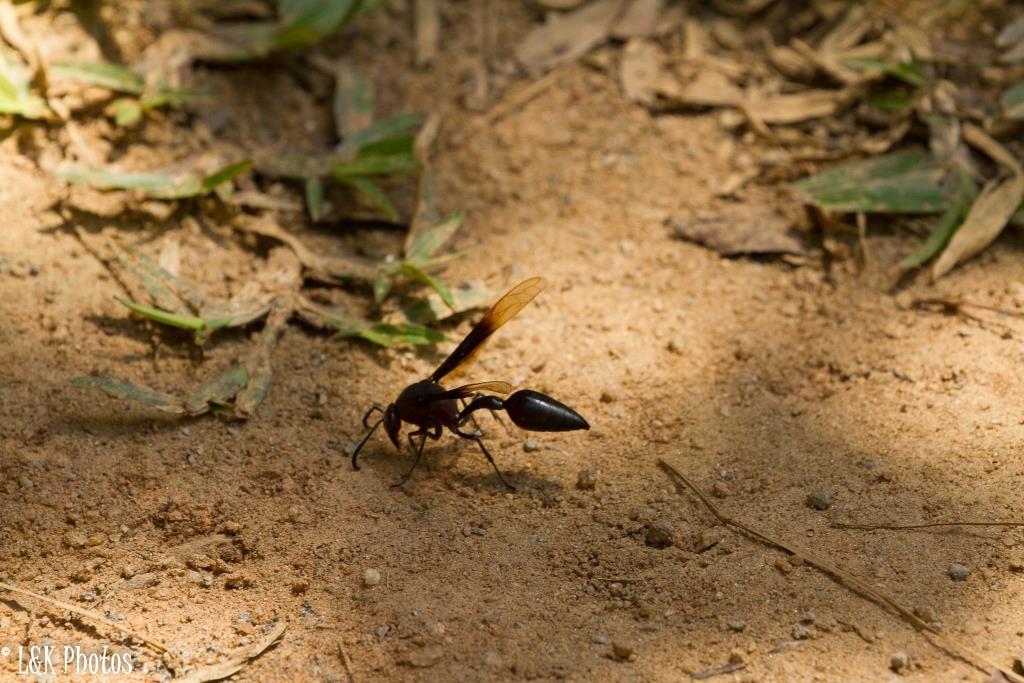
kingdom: Animalia
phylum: Arthropoda
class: Insecta
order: Hymenoptera
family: Eumenidae
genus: Delta
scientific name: Delta regina
